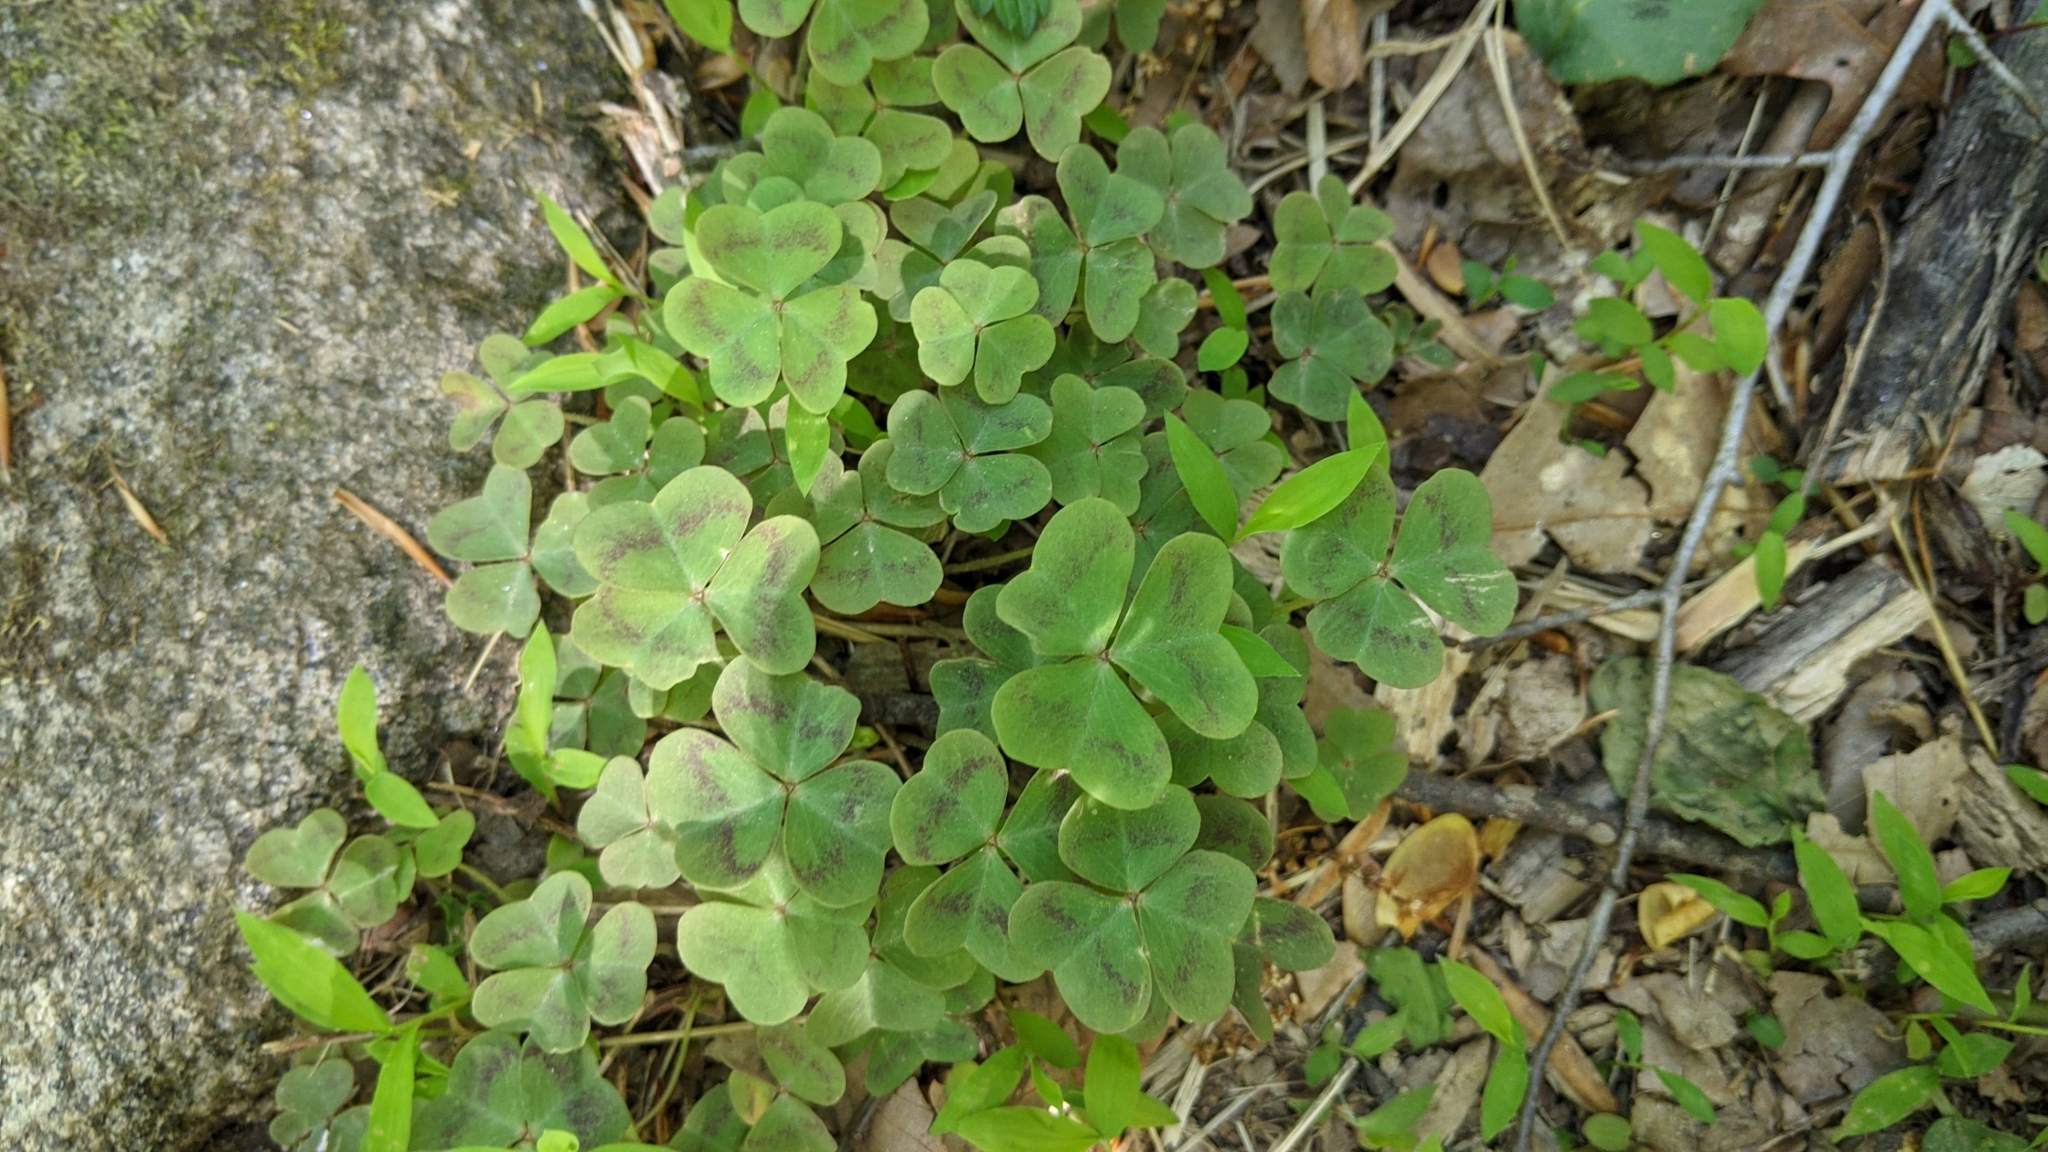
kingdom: Plantae
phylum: Tracheophyta
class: Magnoliopsida
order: Oxalidales
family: Oxalidaceae
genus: Oxalis
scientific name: Oxalis violacea
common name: Violet wood-sorrel
